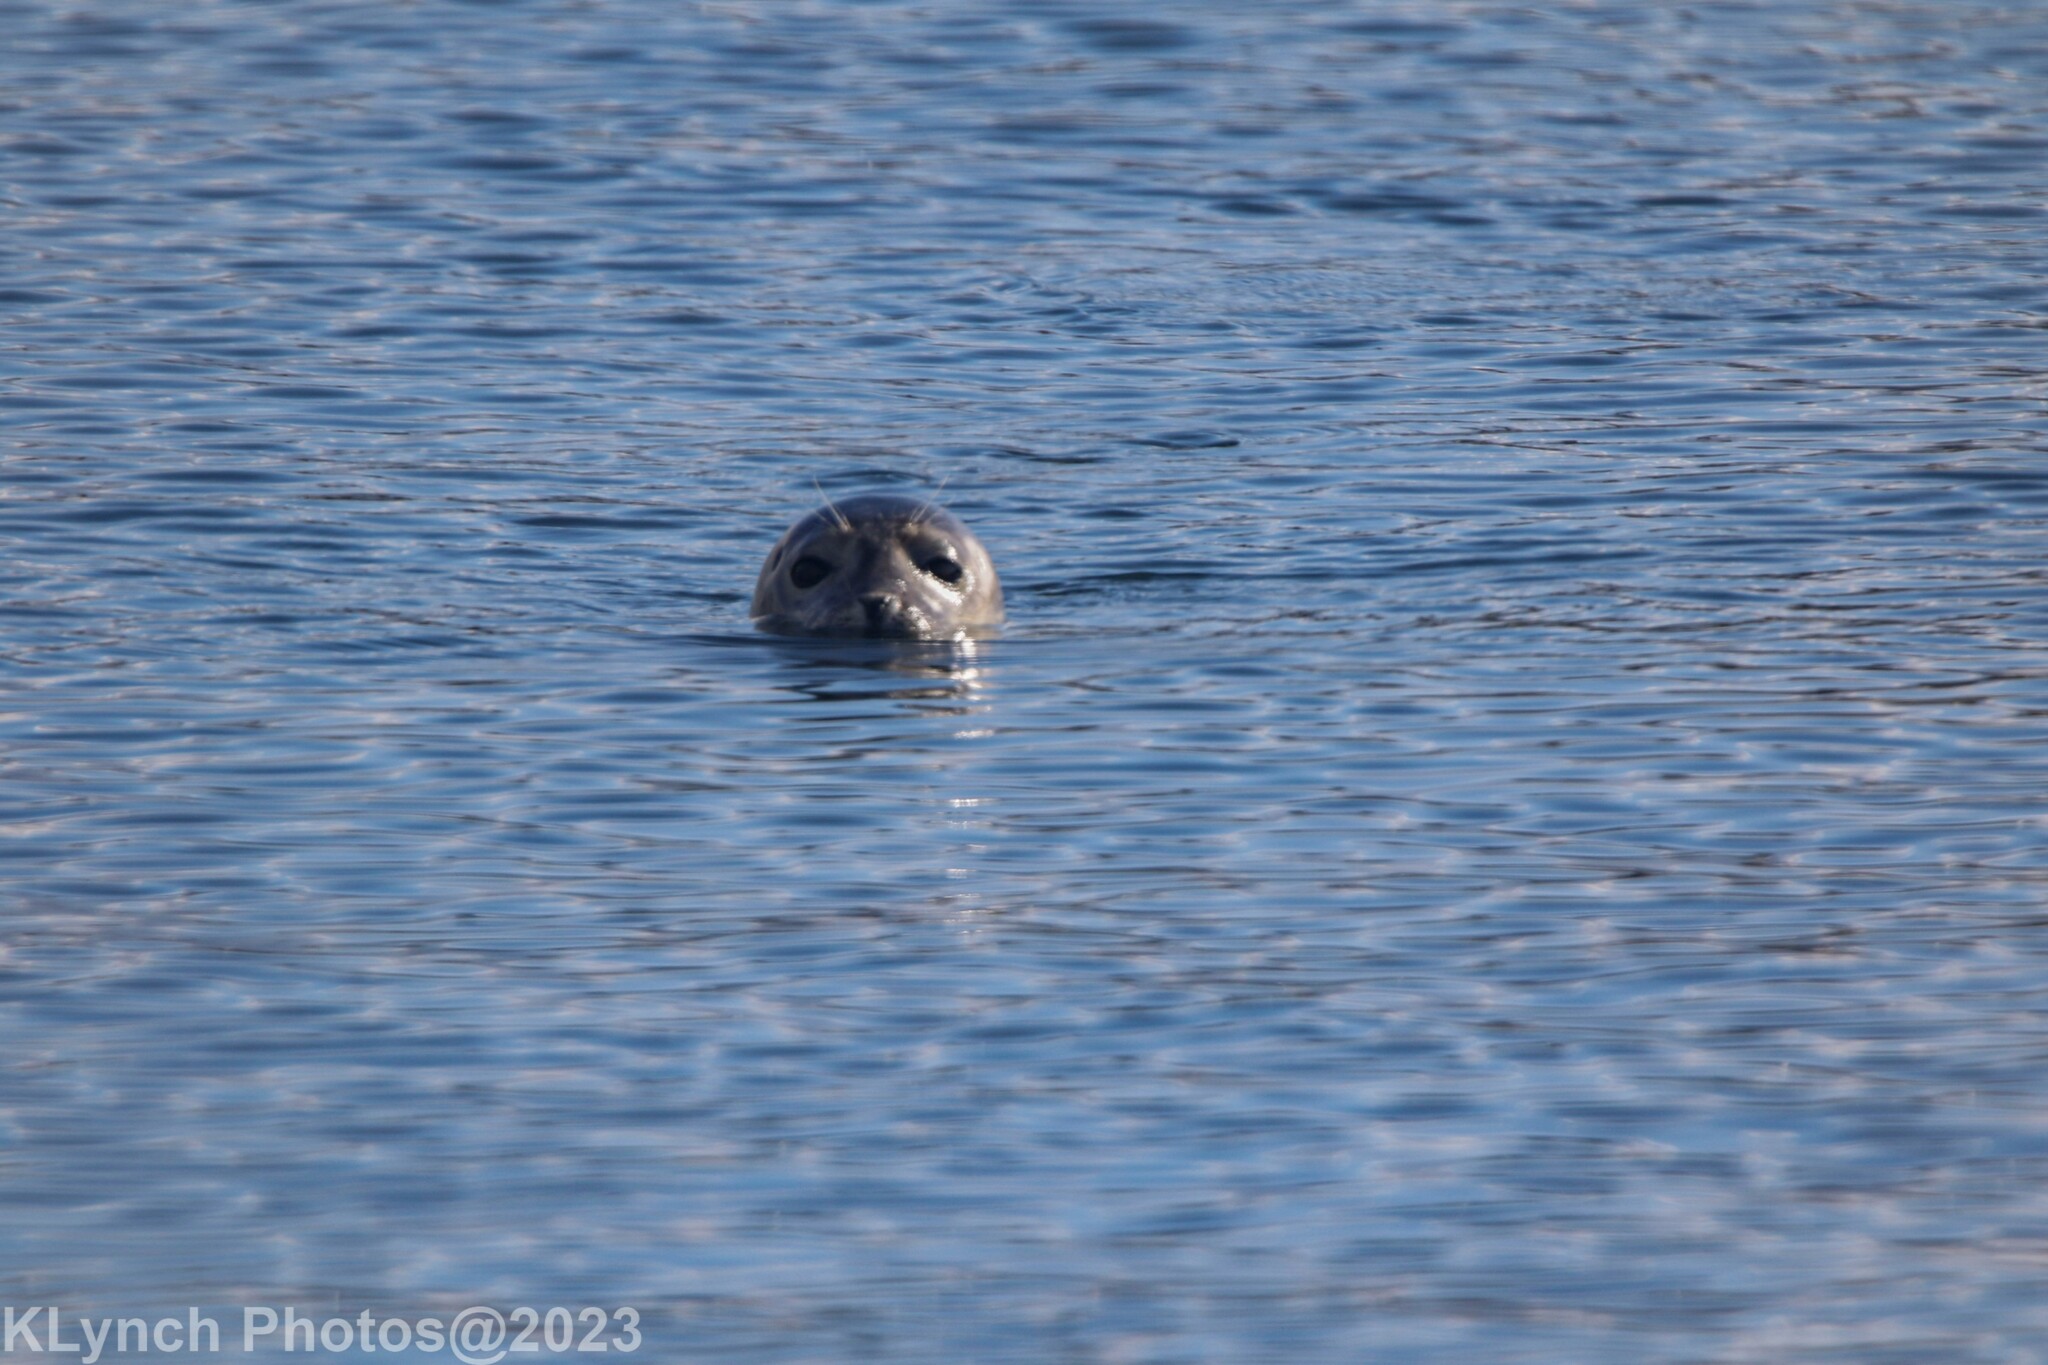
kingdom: Animalia
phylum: Chordata
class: Mammalia
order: Carnivora
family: Phocidae
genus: Phoca
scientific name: Phoca vitulina
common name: Harbor seal
